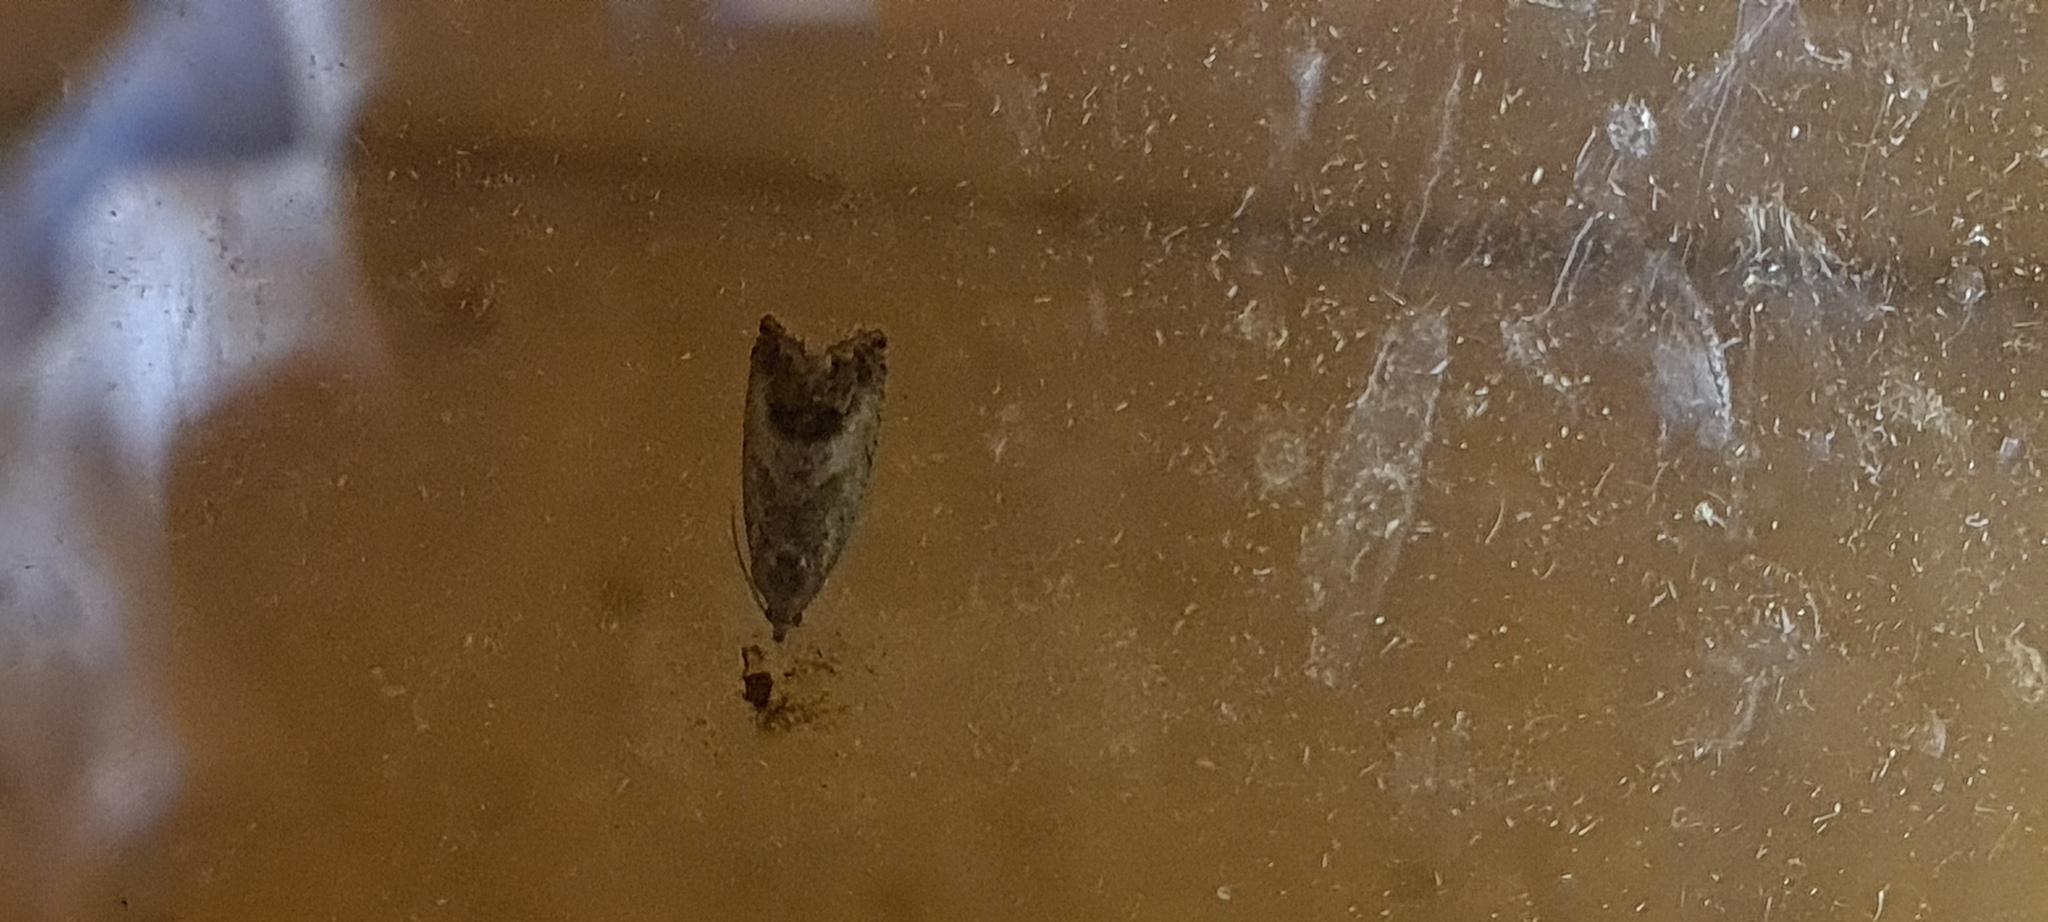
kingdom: Animalia
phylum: Arthropoda
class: Insecta
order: Lepidoptera
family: Tortricidae
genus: Cydia
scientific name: Cydia splendana
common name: De: kastanienwickler, eichenwickler es: oruga de la castaña fr: carpocapse des châtaignes it: cidia o tortrice tardiva delle castagne pt: bichado das castanhas gb: acorn moth, chestnut fruit tortrix
